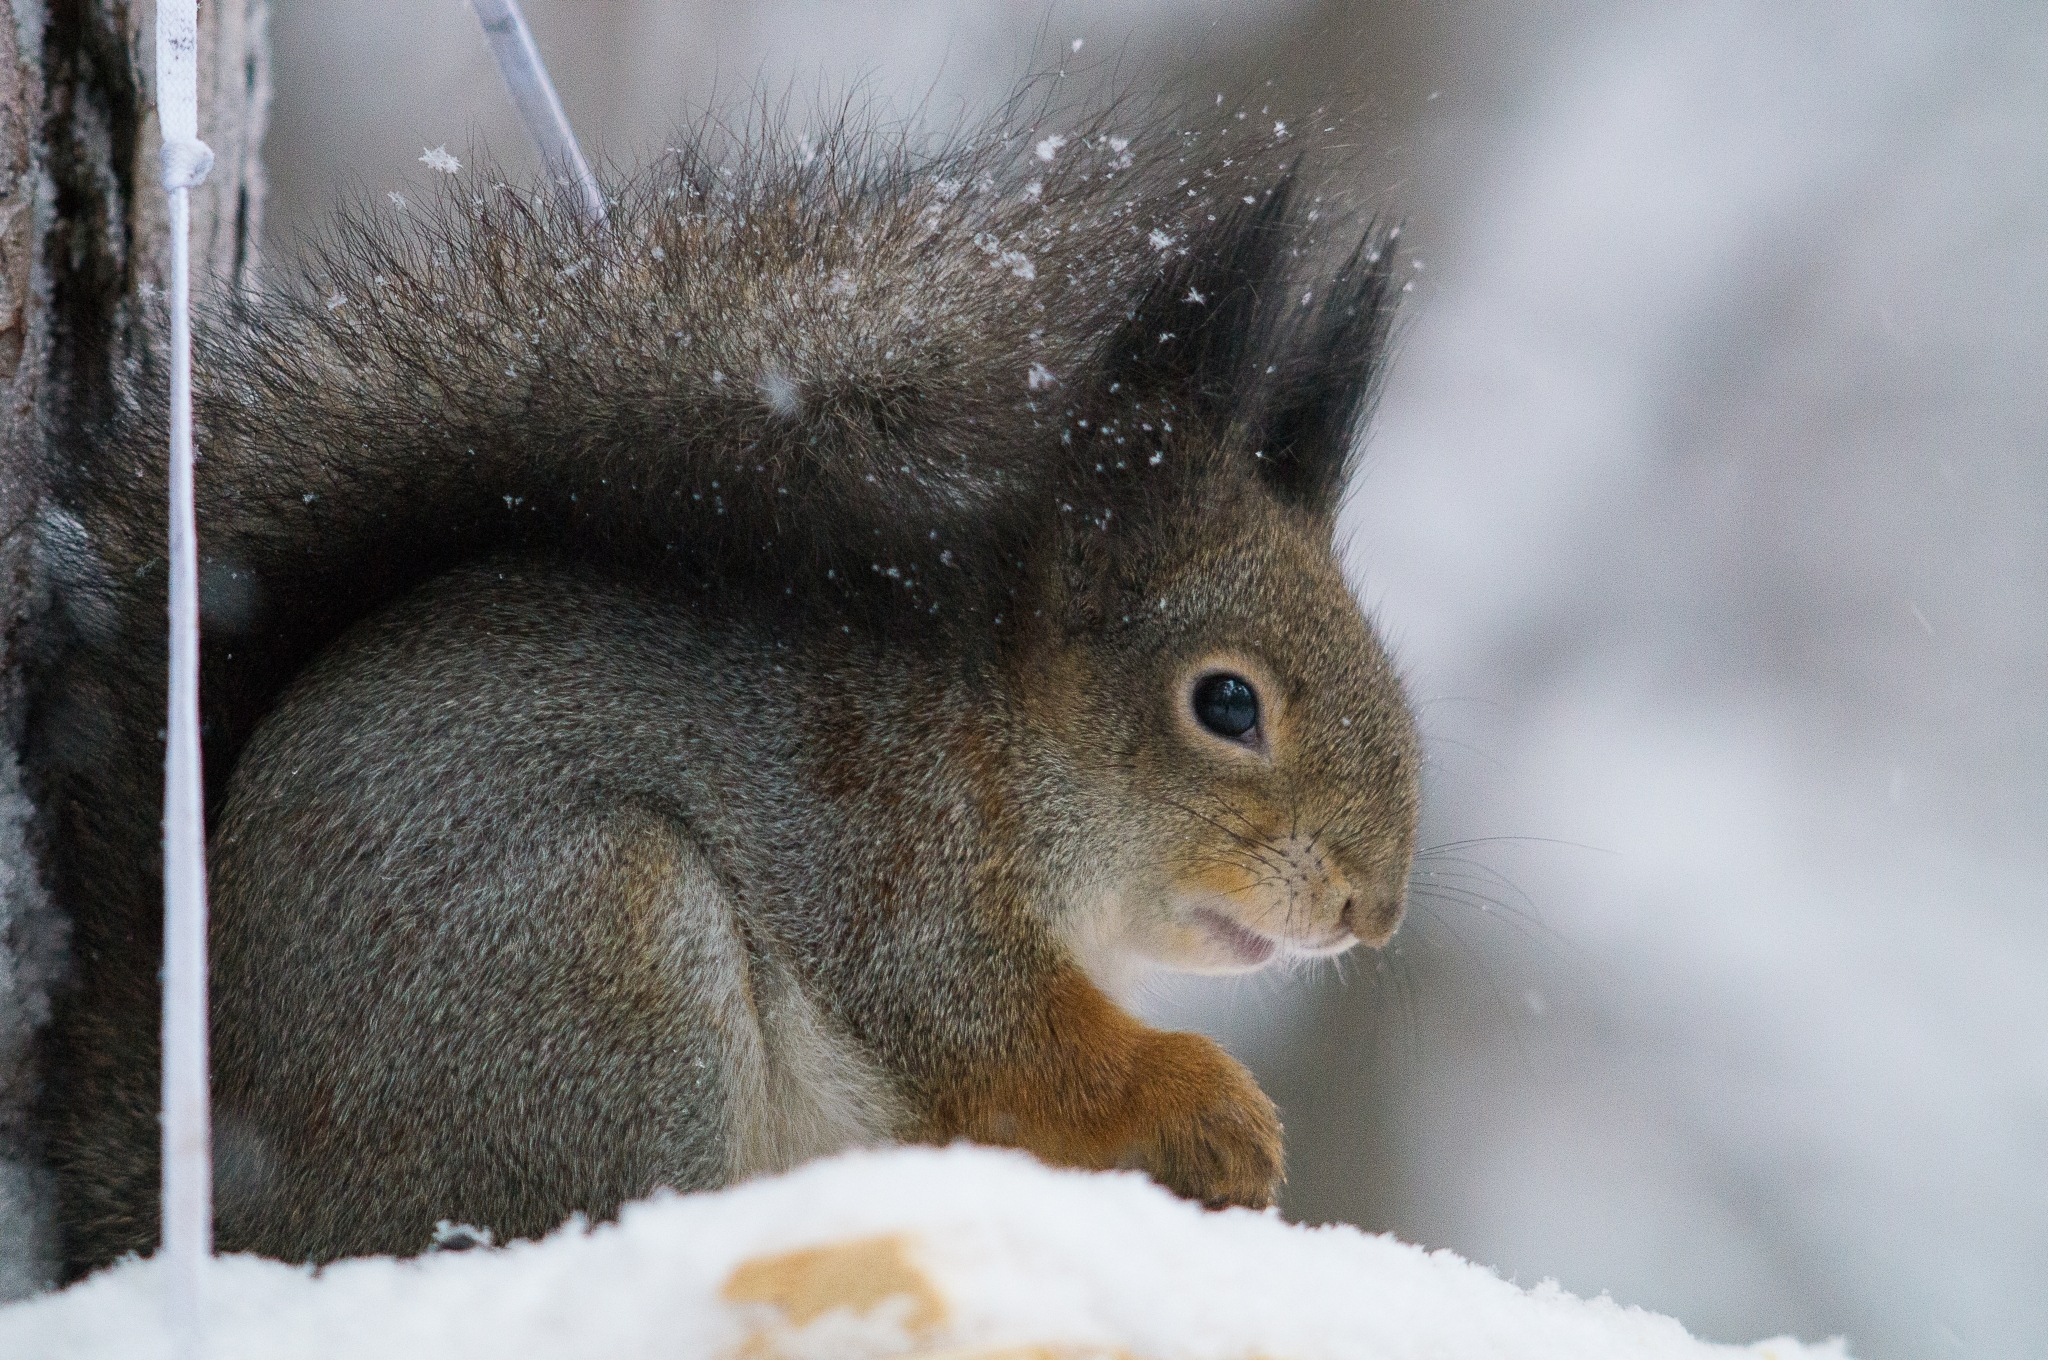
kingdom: Animalia
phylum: Chordata
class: Mammalia
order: Rodentia
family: Sciuridae
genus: Sciurus
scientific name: Sciurus vulgaris
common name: Eurasian red squirrel
